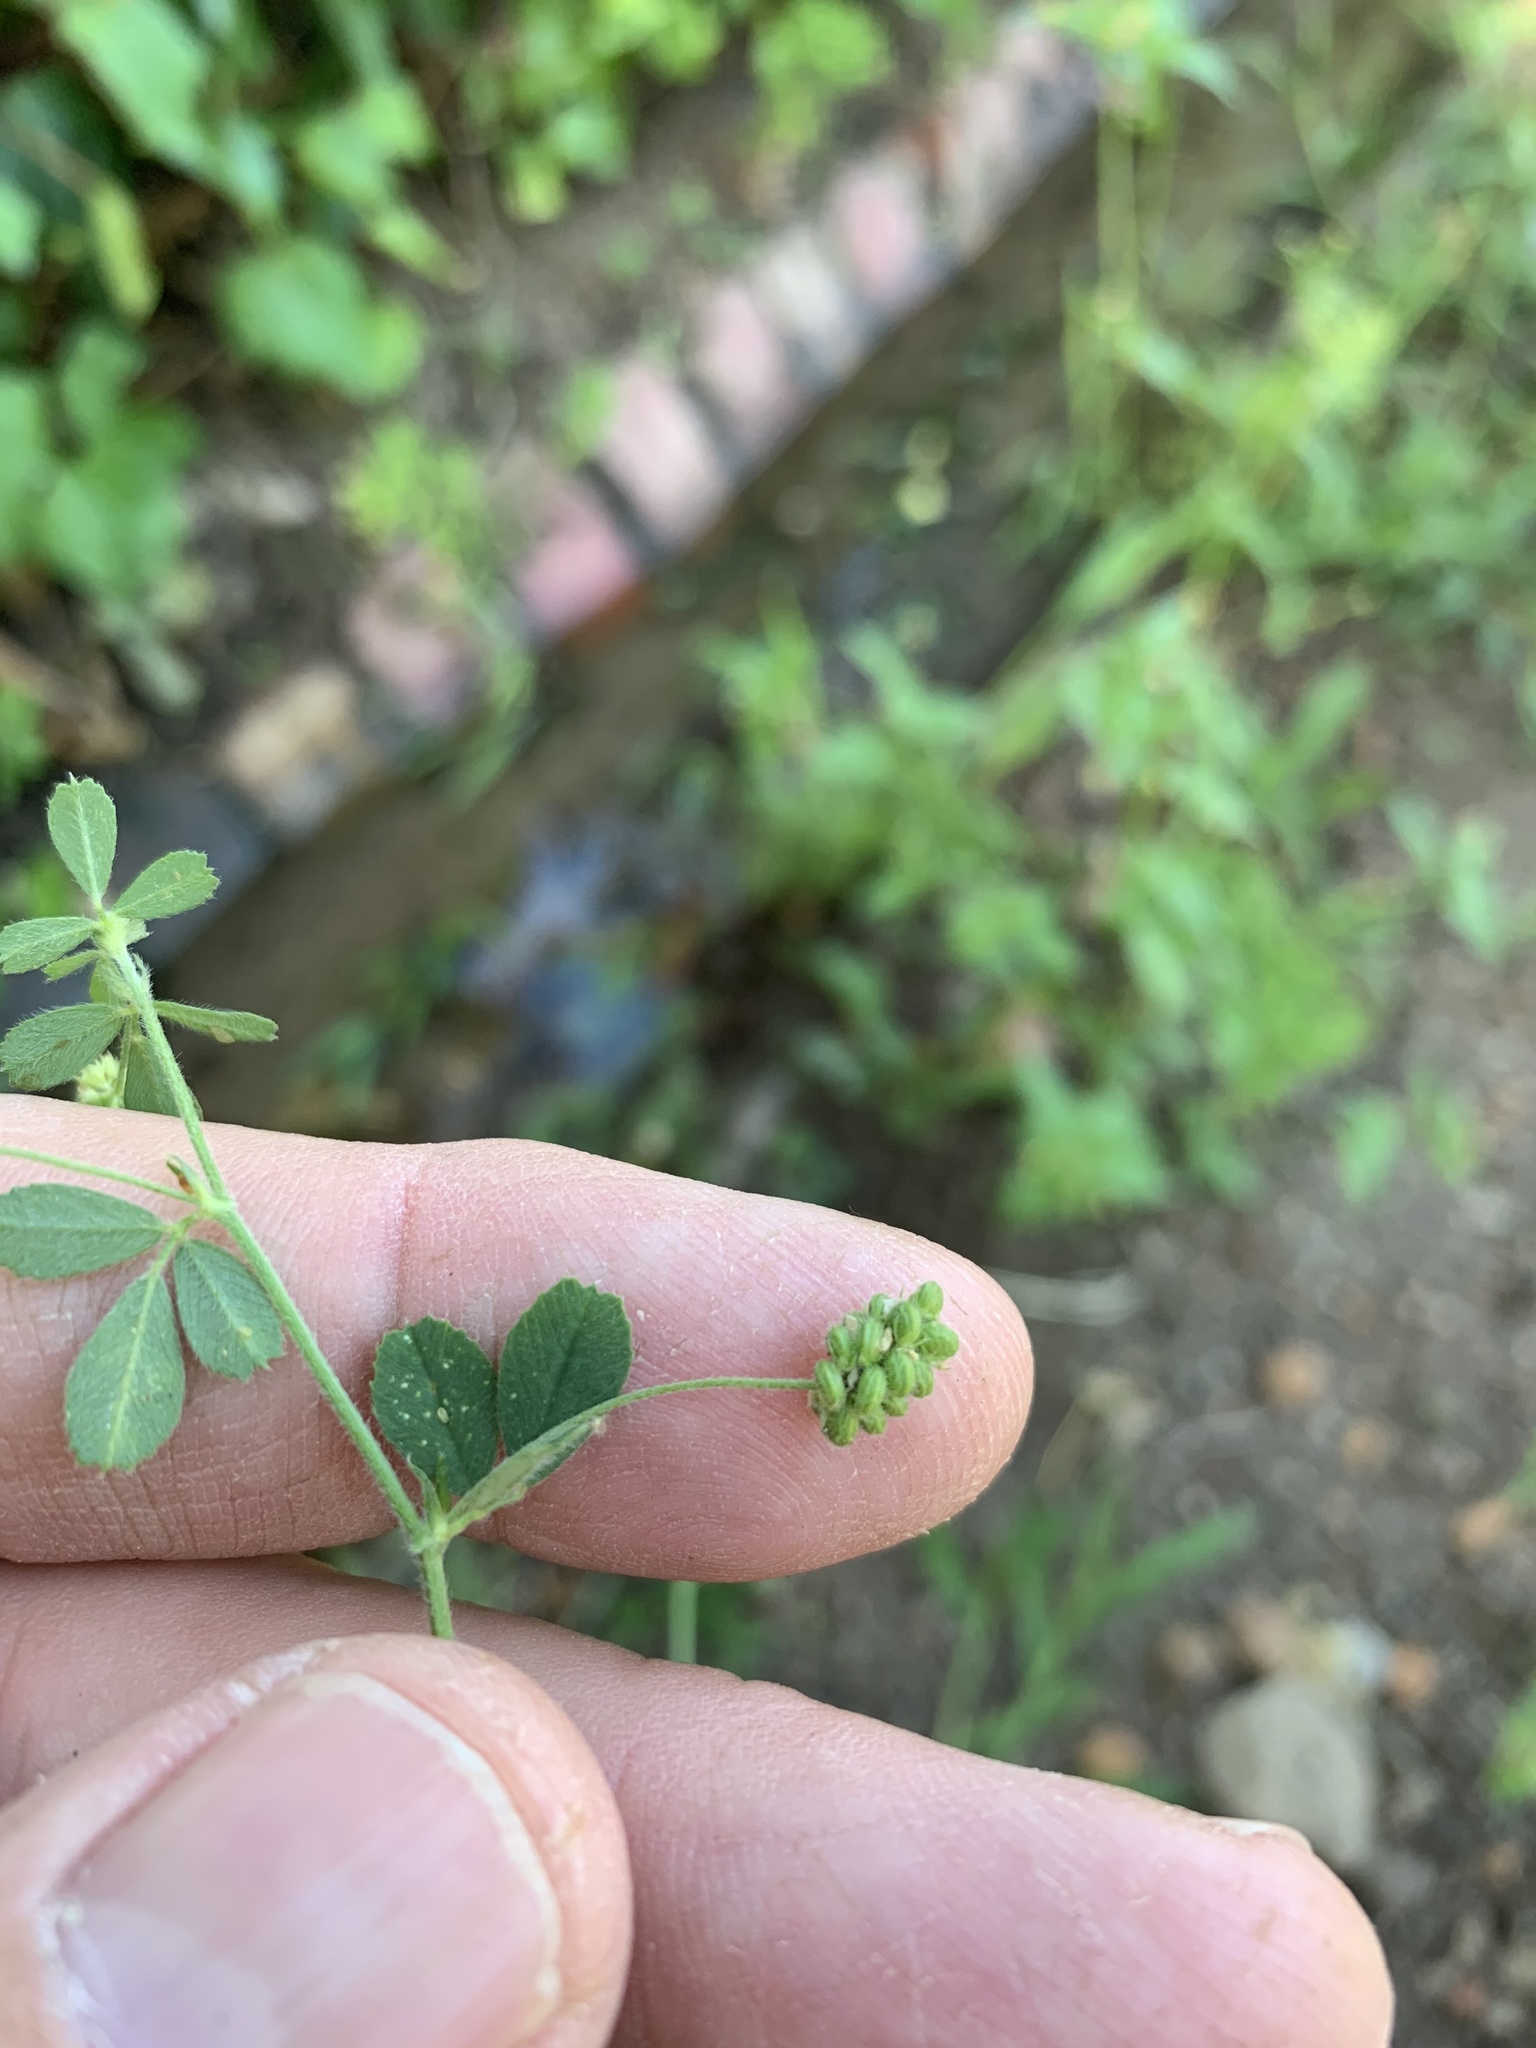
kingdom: Plantae
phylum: Tracheophyta
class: Magnoliopsida
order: Fabales
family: Fabaceae
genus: Medicago
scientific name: Medicago lupulina
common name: Black medick
